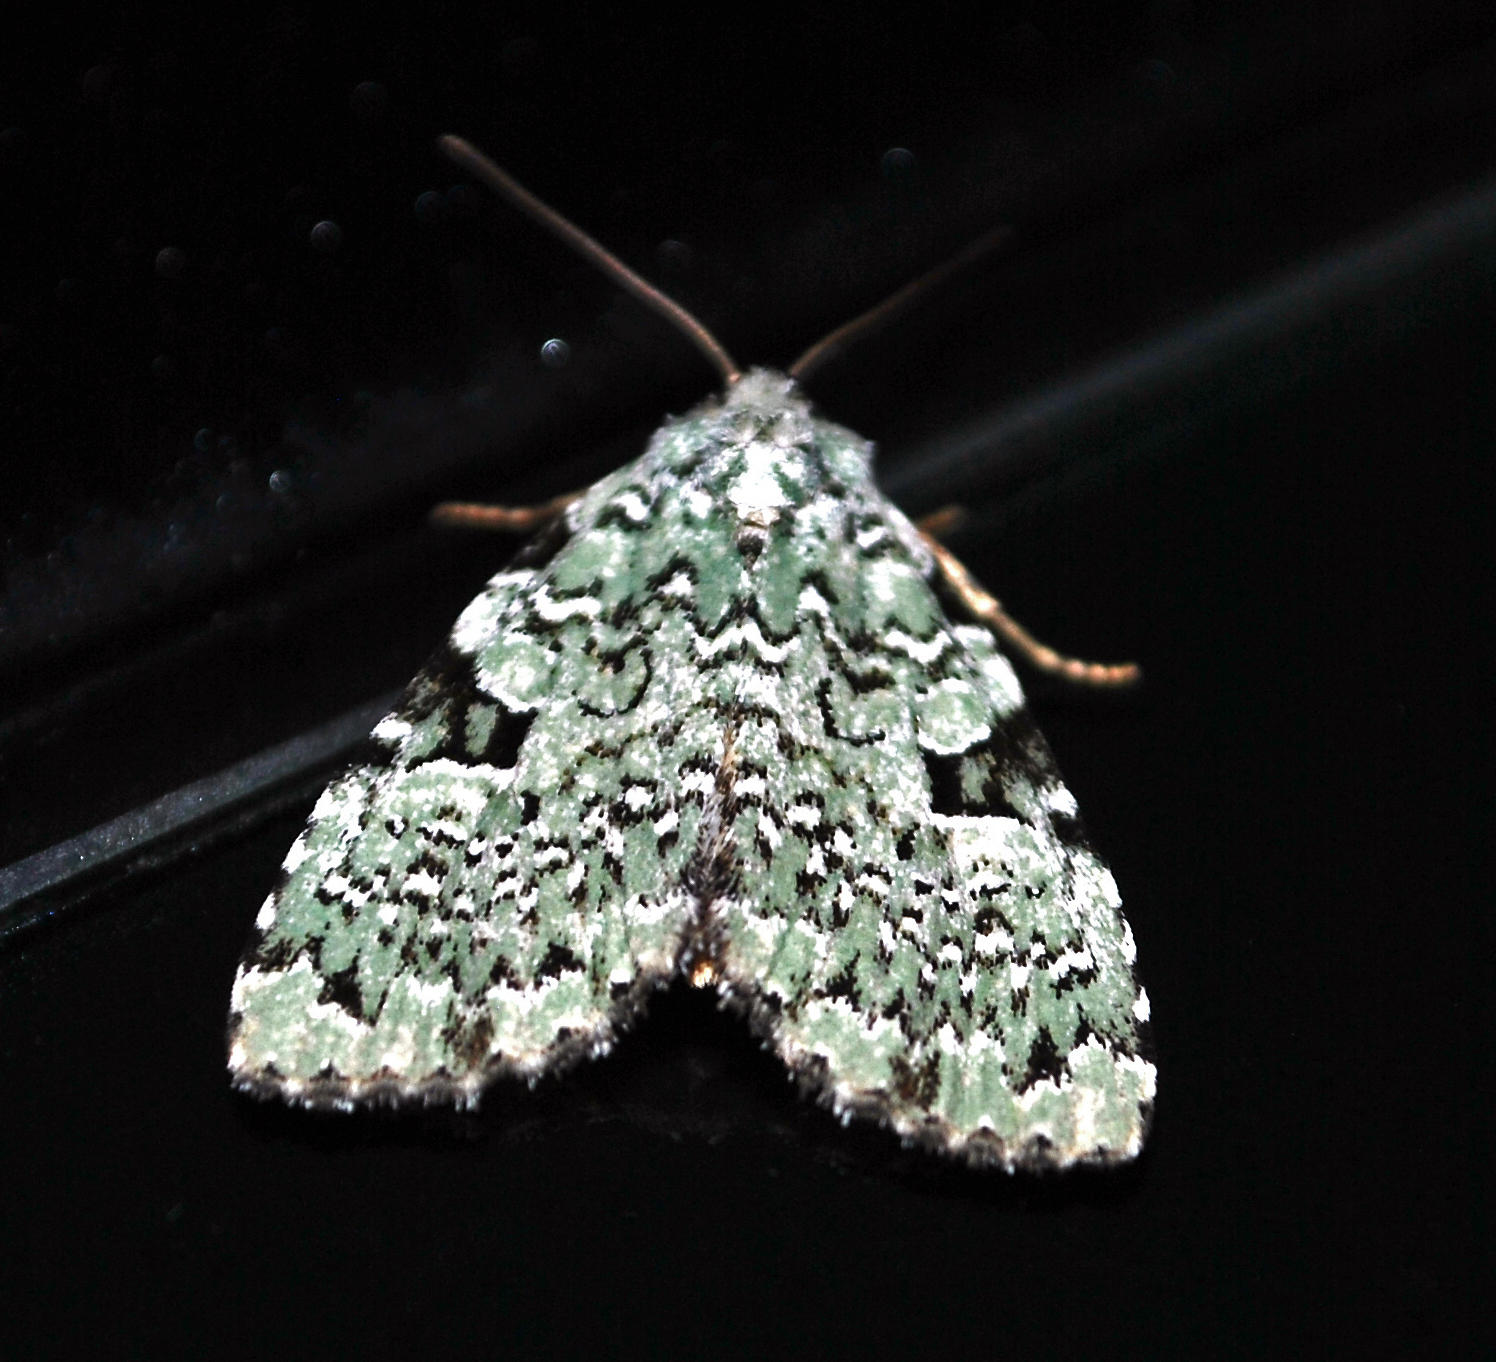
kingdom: Animalia
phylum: Arthropoda
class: Insecta
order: Lepidoptera
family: Noctuidae
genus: Leuconycta
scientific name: Leuconycta diphteroides
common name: Green leuconycta moth
